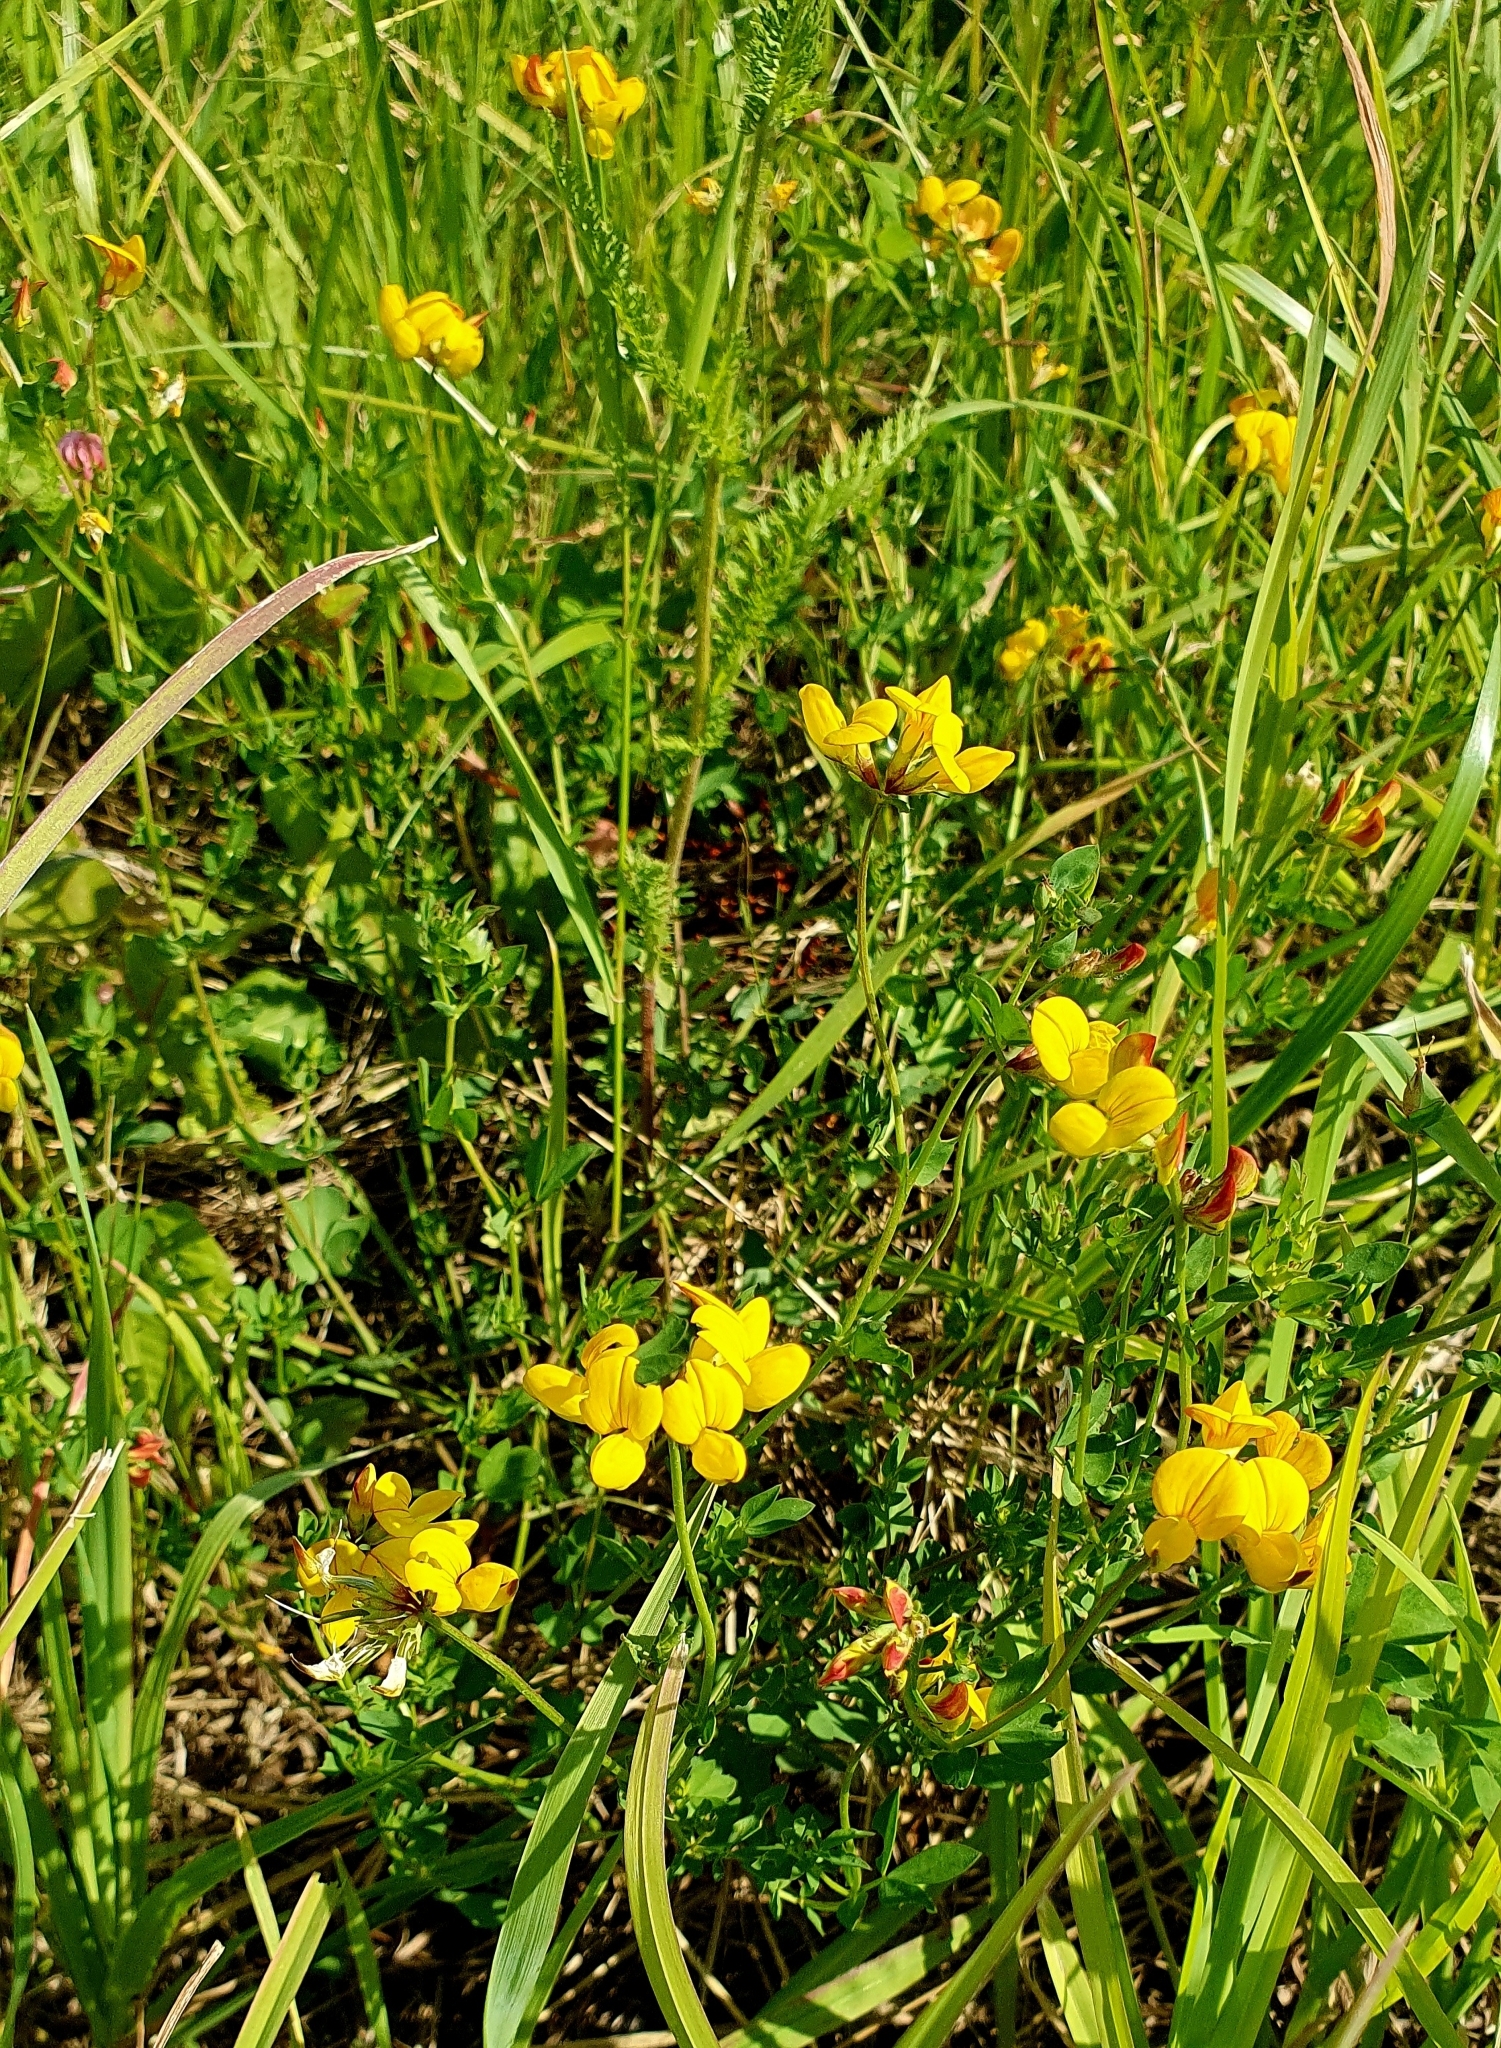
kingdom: Plantae
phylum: Tracheophyta
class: Magnoliopsida
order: Fabales
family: Fabaceae
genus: Lotus
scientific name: Lotus corniculatus
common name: Common bird's-foot-trefoil
